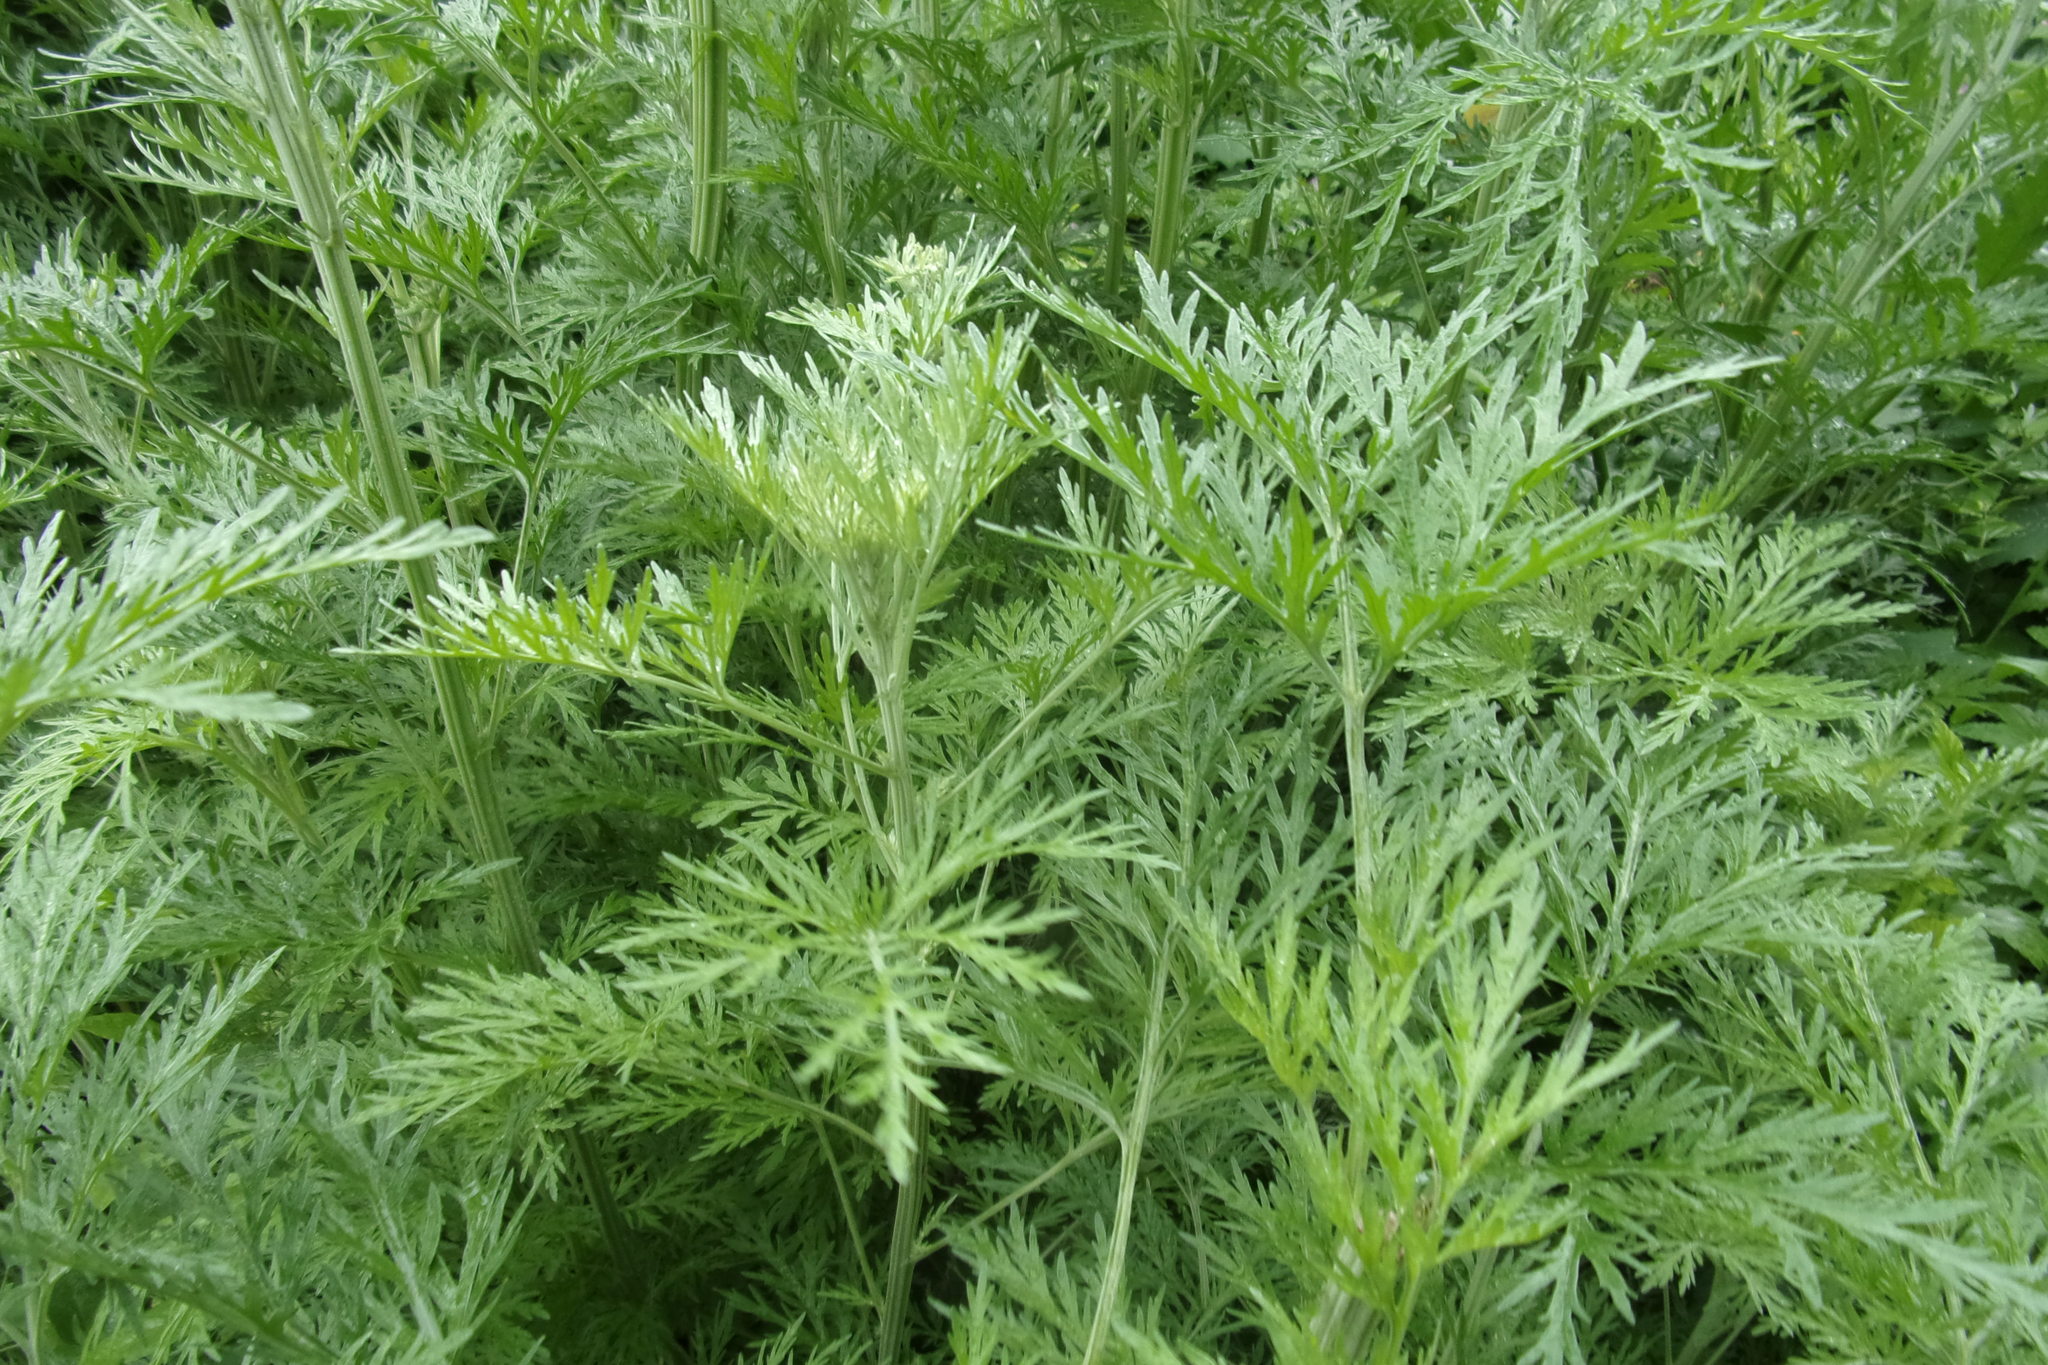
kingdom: Plantae
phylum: Tracheophyta
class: Magnoliopsida
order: Asterales
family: Asteraceae
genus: Artemisia
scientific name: Artemisia sieversiana
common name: Sieversian wormwood
